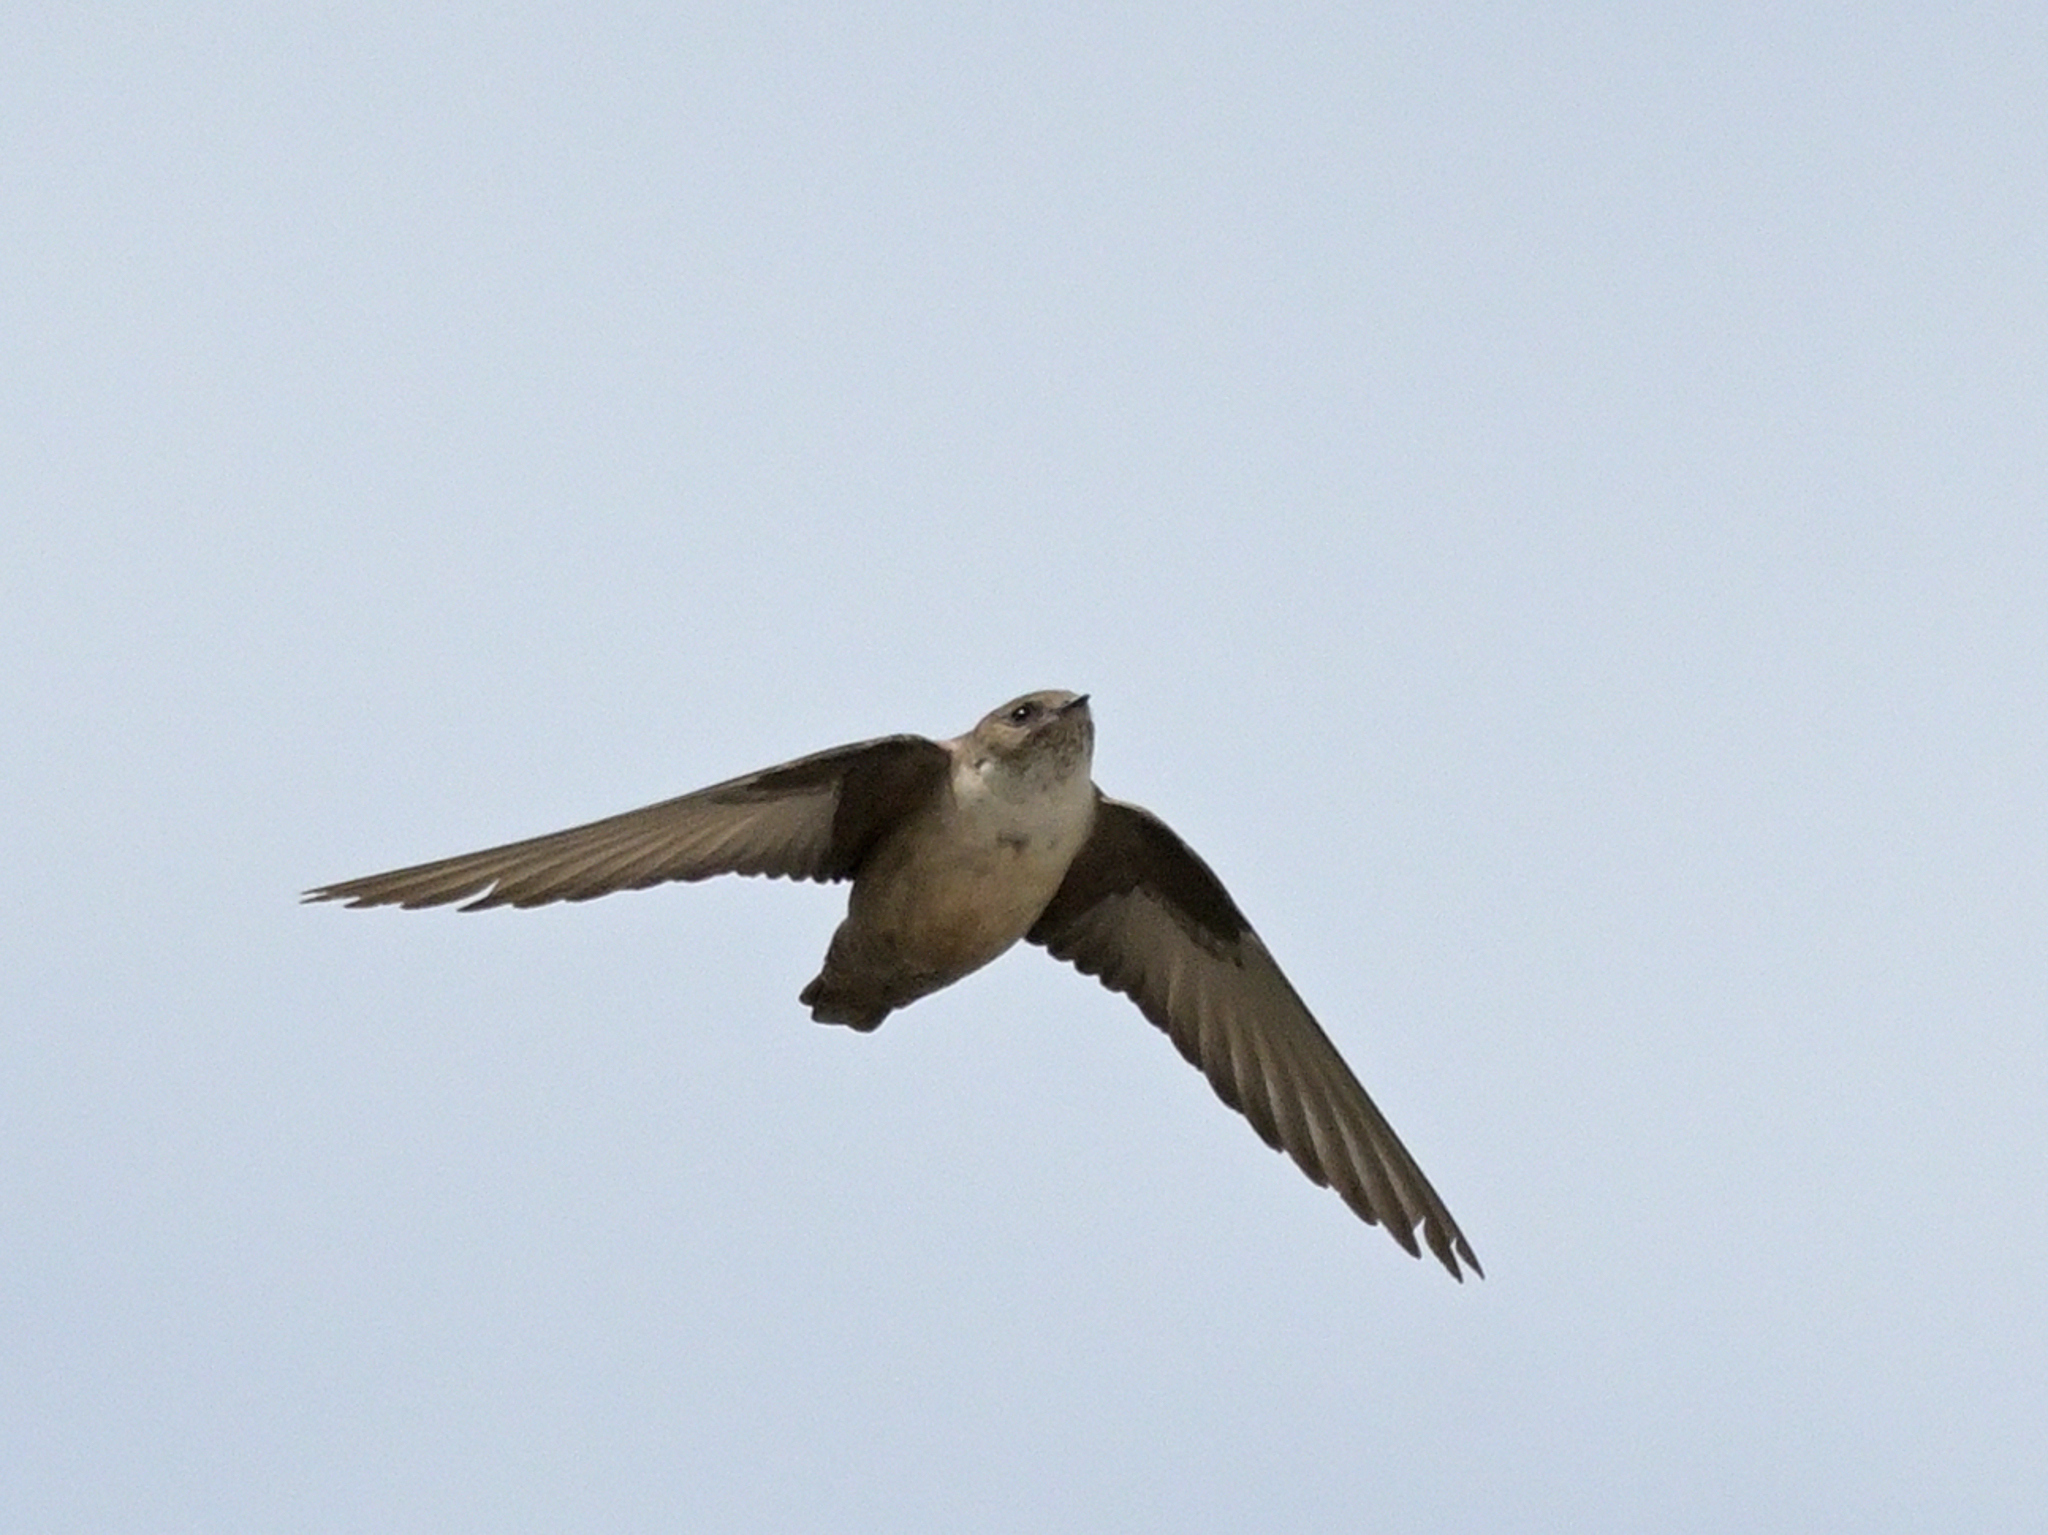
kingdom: Animalia
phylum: Chordata
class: Aves
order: Passeriformes
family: Hirundinidae
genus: Ptyonoprogne
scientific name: Ptyonoprogne rupestris
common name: Eurasian crag martin
